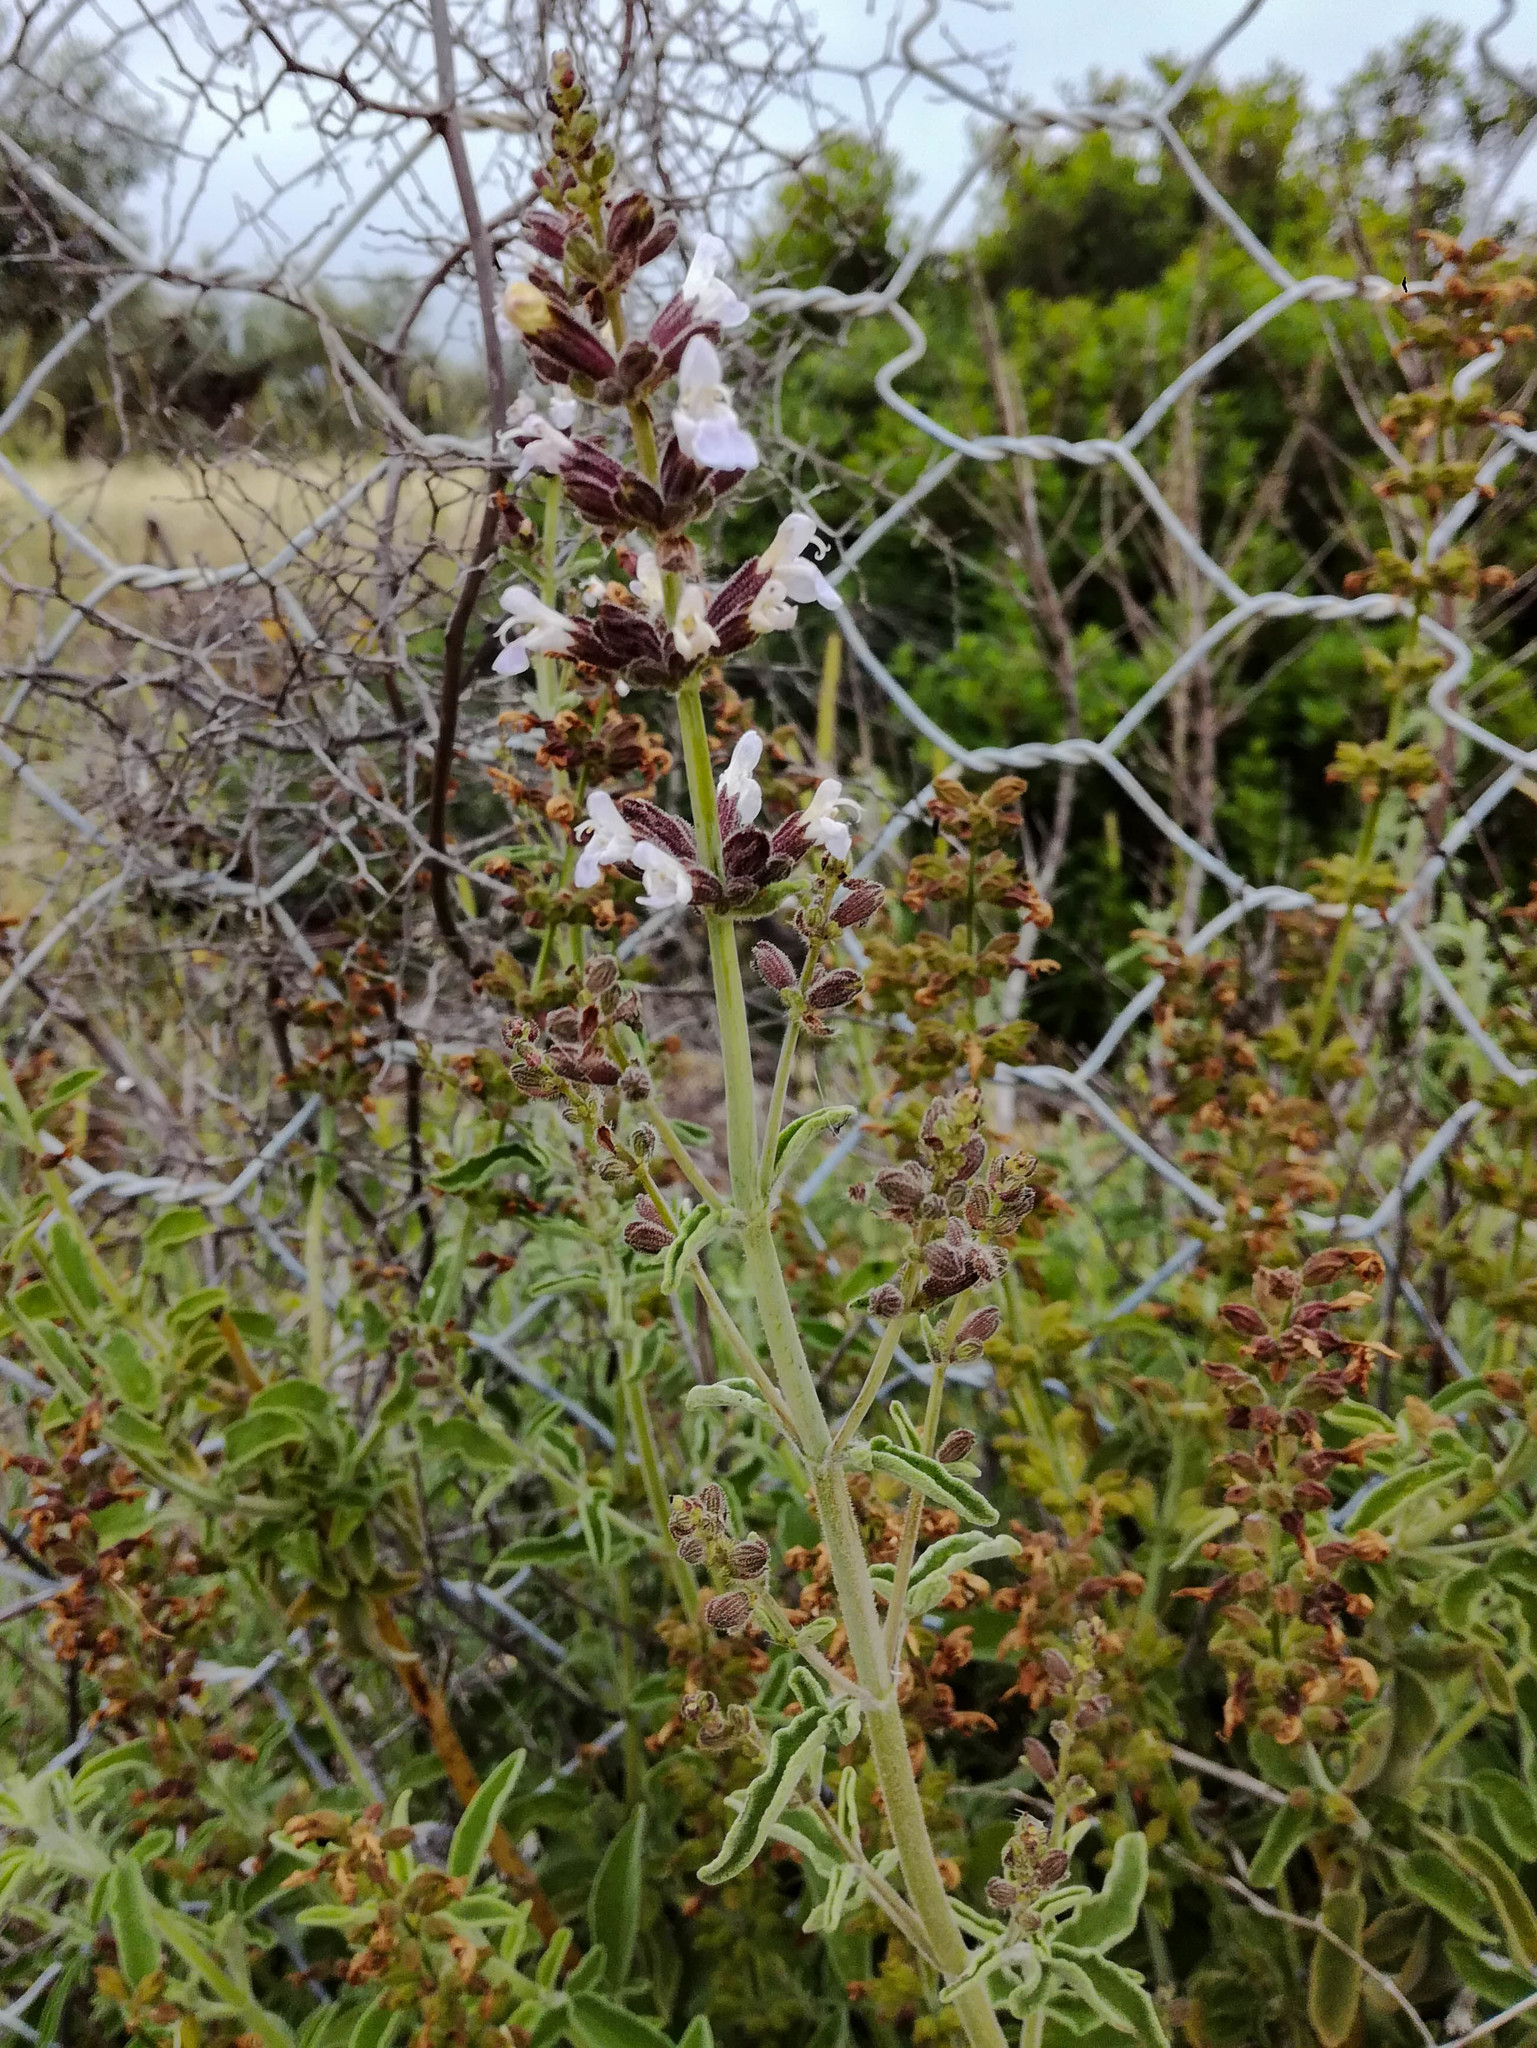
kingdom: Plantae
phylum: Tracheophyta
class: Magnoliopsida
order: Lamiales
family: Lamiaceae
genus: Salvia
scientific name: Salvia fruticosa
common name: Greek sage
